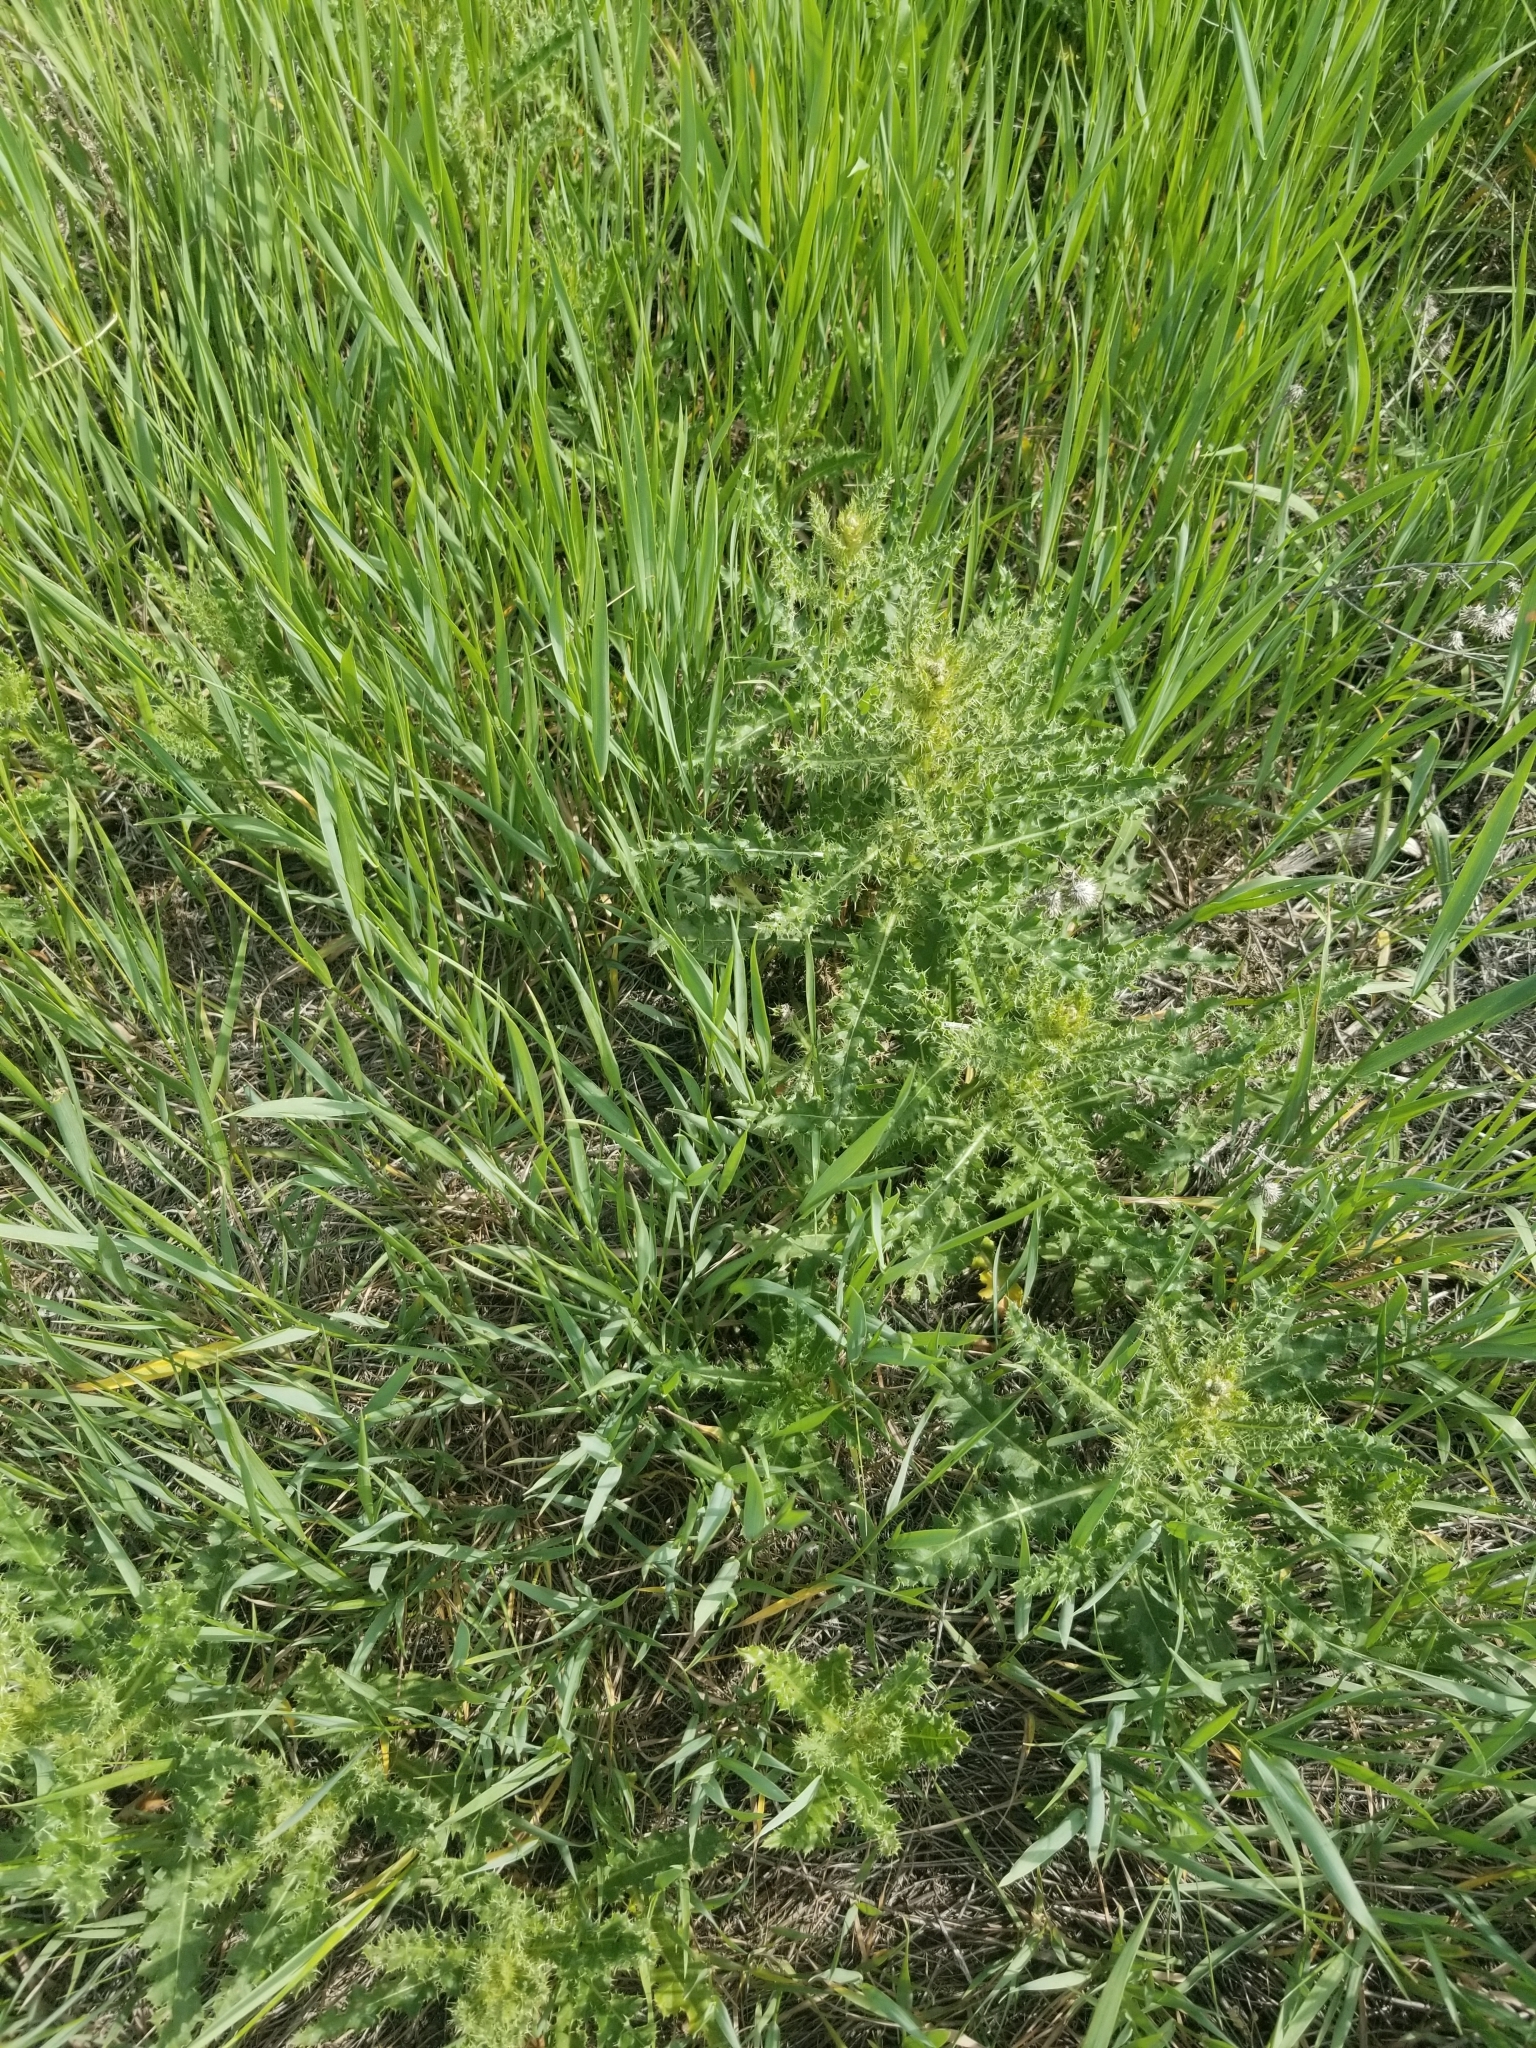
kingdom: Plantae
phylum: Tracheophyta
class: Magnoliopsida
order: Asterales
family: Asteraceae
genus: Cirsium
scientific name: Cirsium arvense
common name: Creeping thistle
